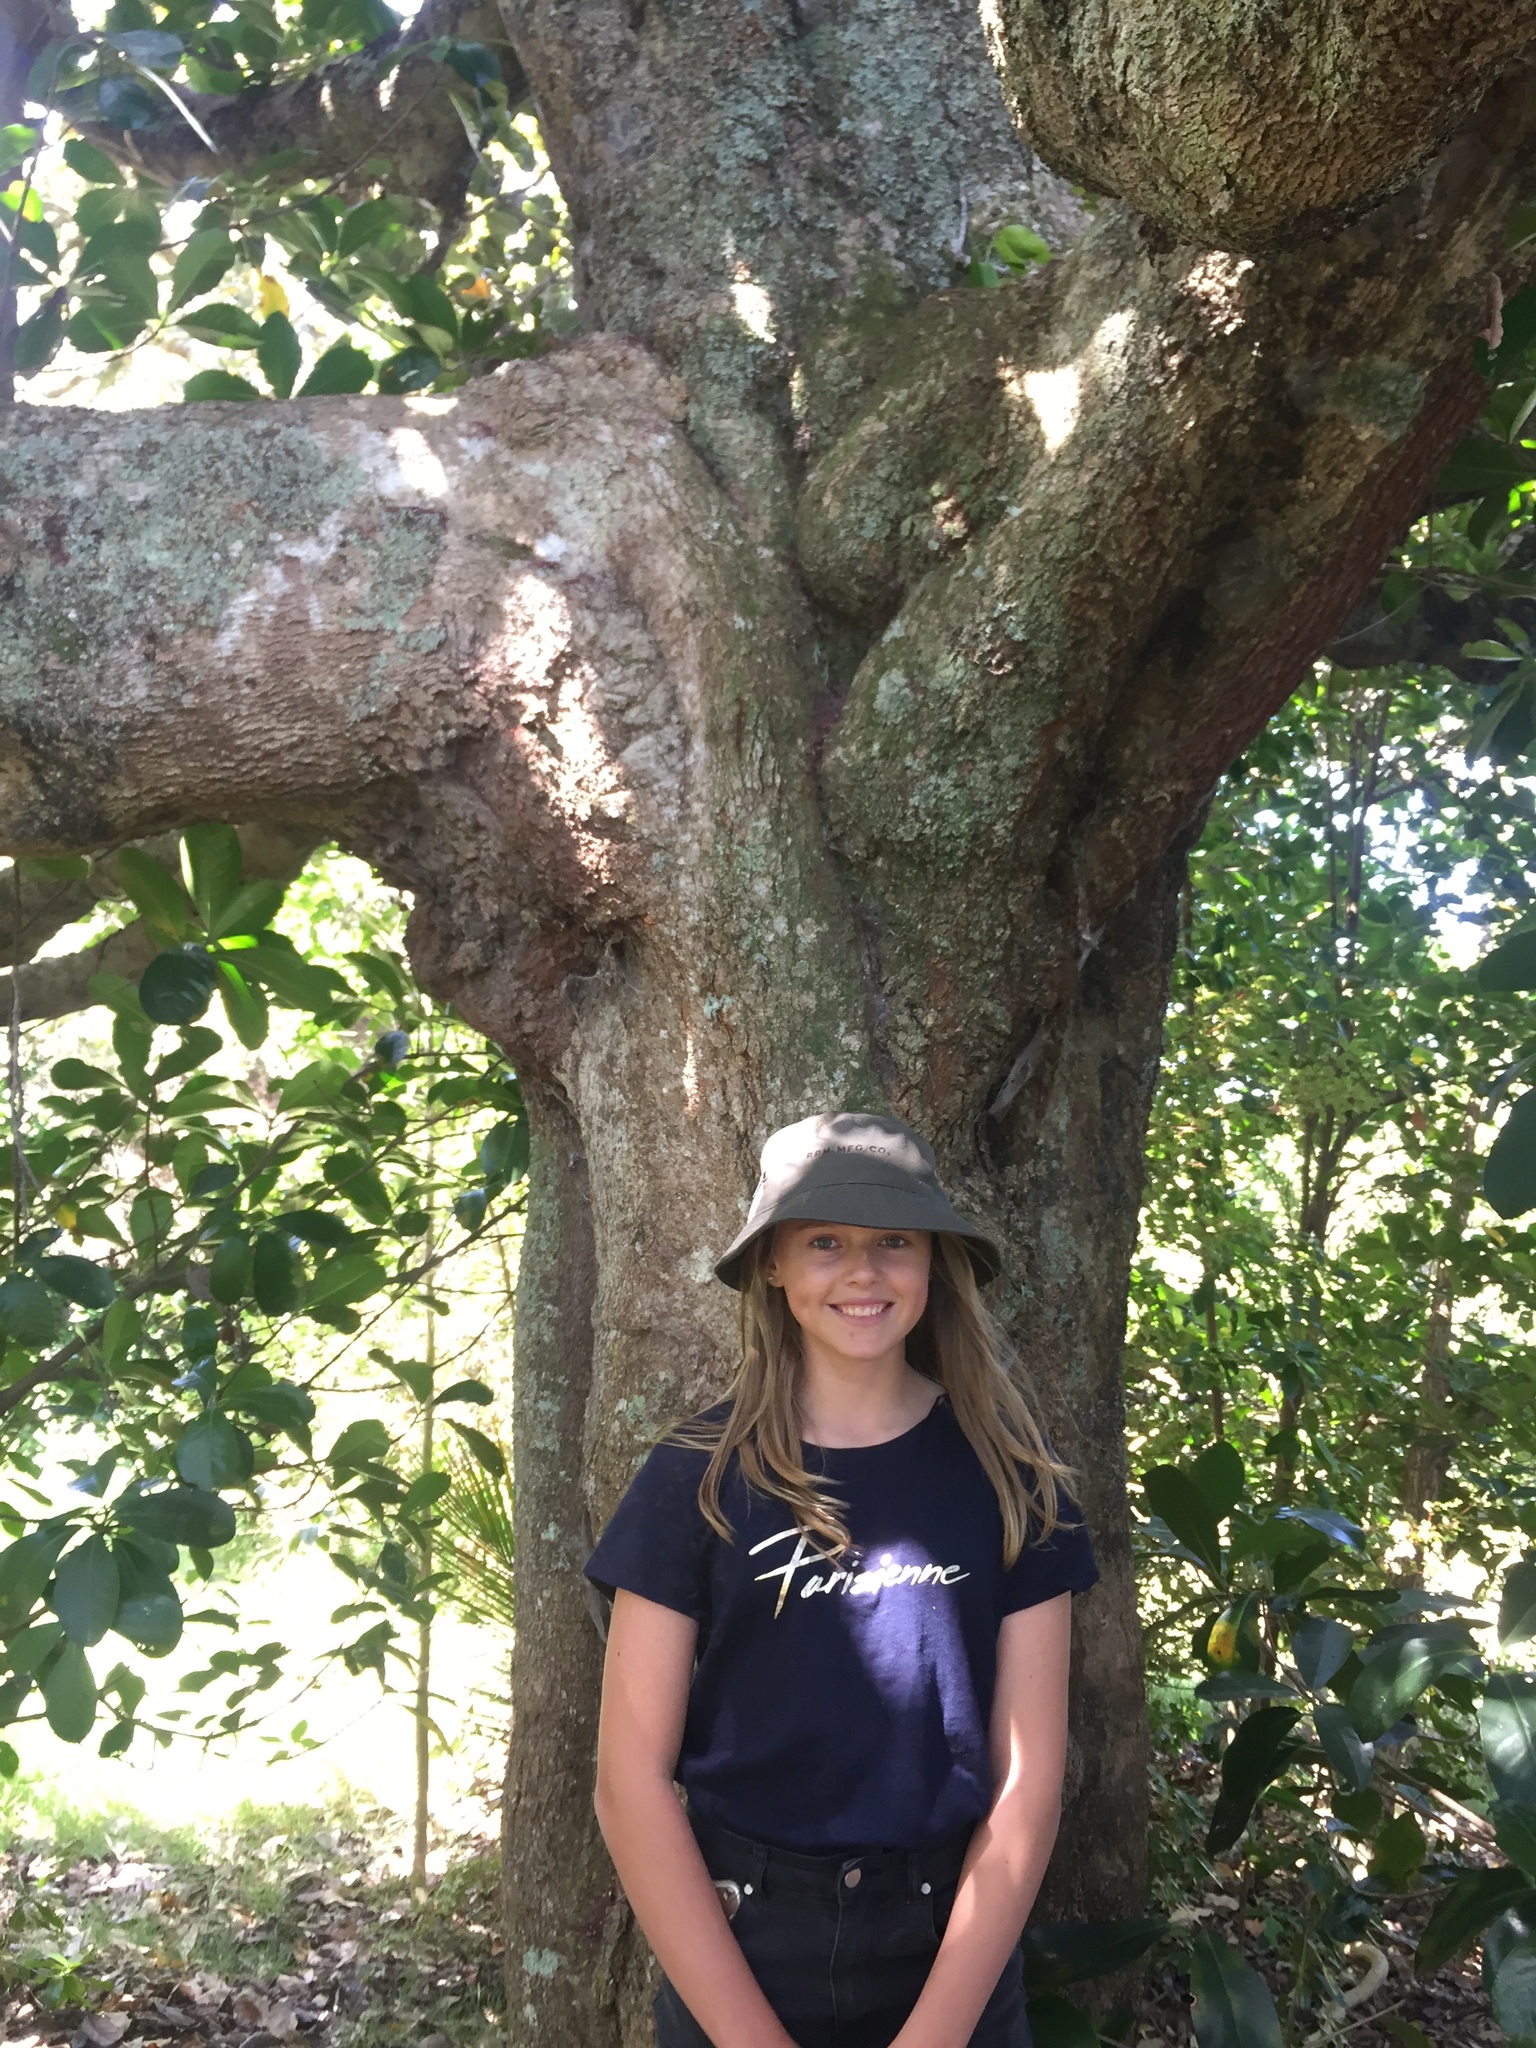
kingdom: Plantae
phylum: Tracheophyta
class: Magnoliopsida
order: Laurales
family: Lauraceae
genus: Beilschmiedia
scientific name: Beilschmiedia tarairi
